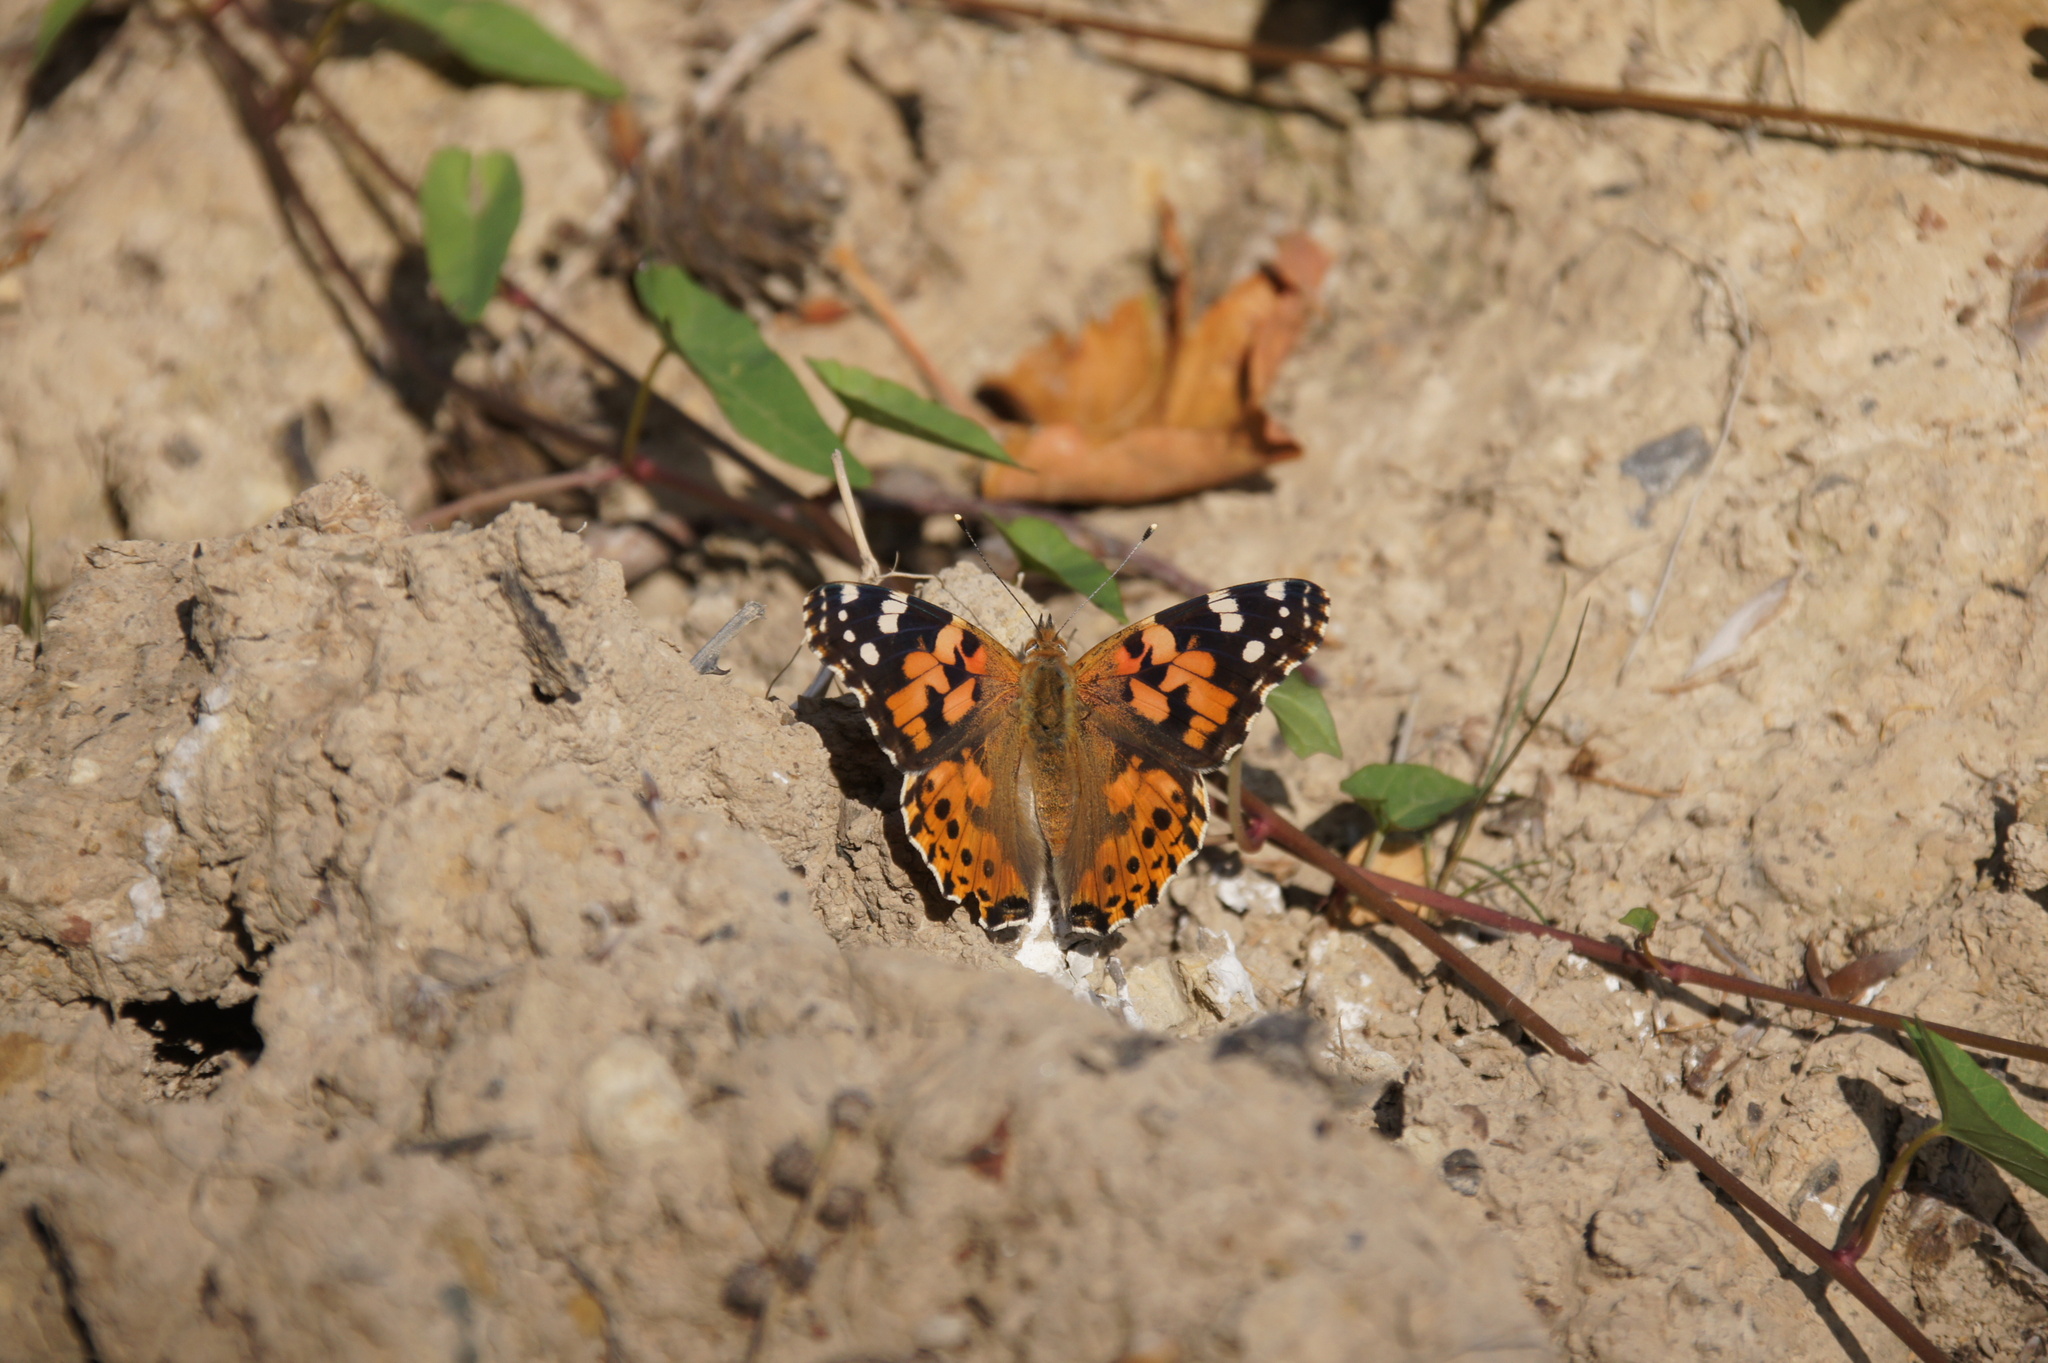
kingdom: Animalia
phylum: Arthropoda
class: Insecta
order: Lepidoptera
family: Nymphalidae
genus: Vanessa
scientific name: Vanessa cardui
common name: Painted lady
